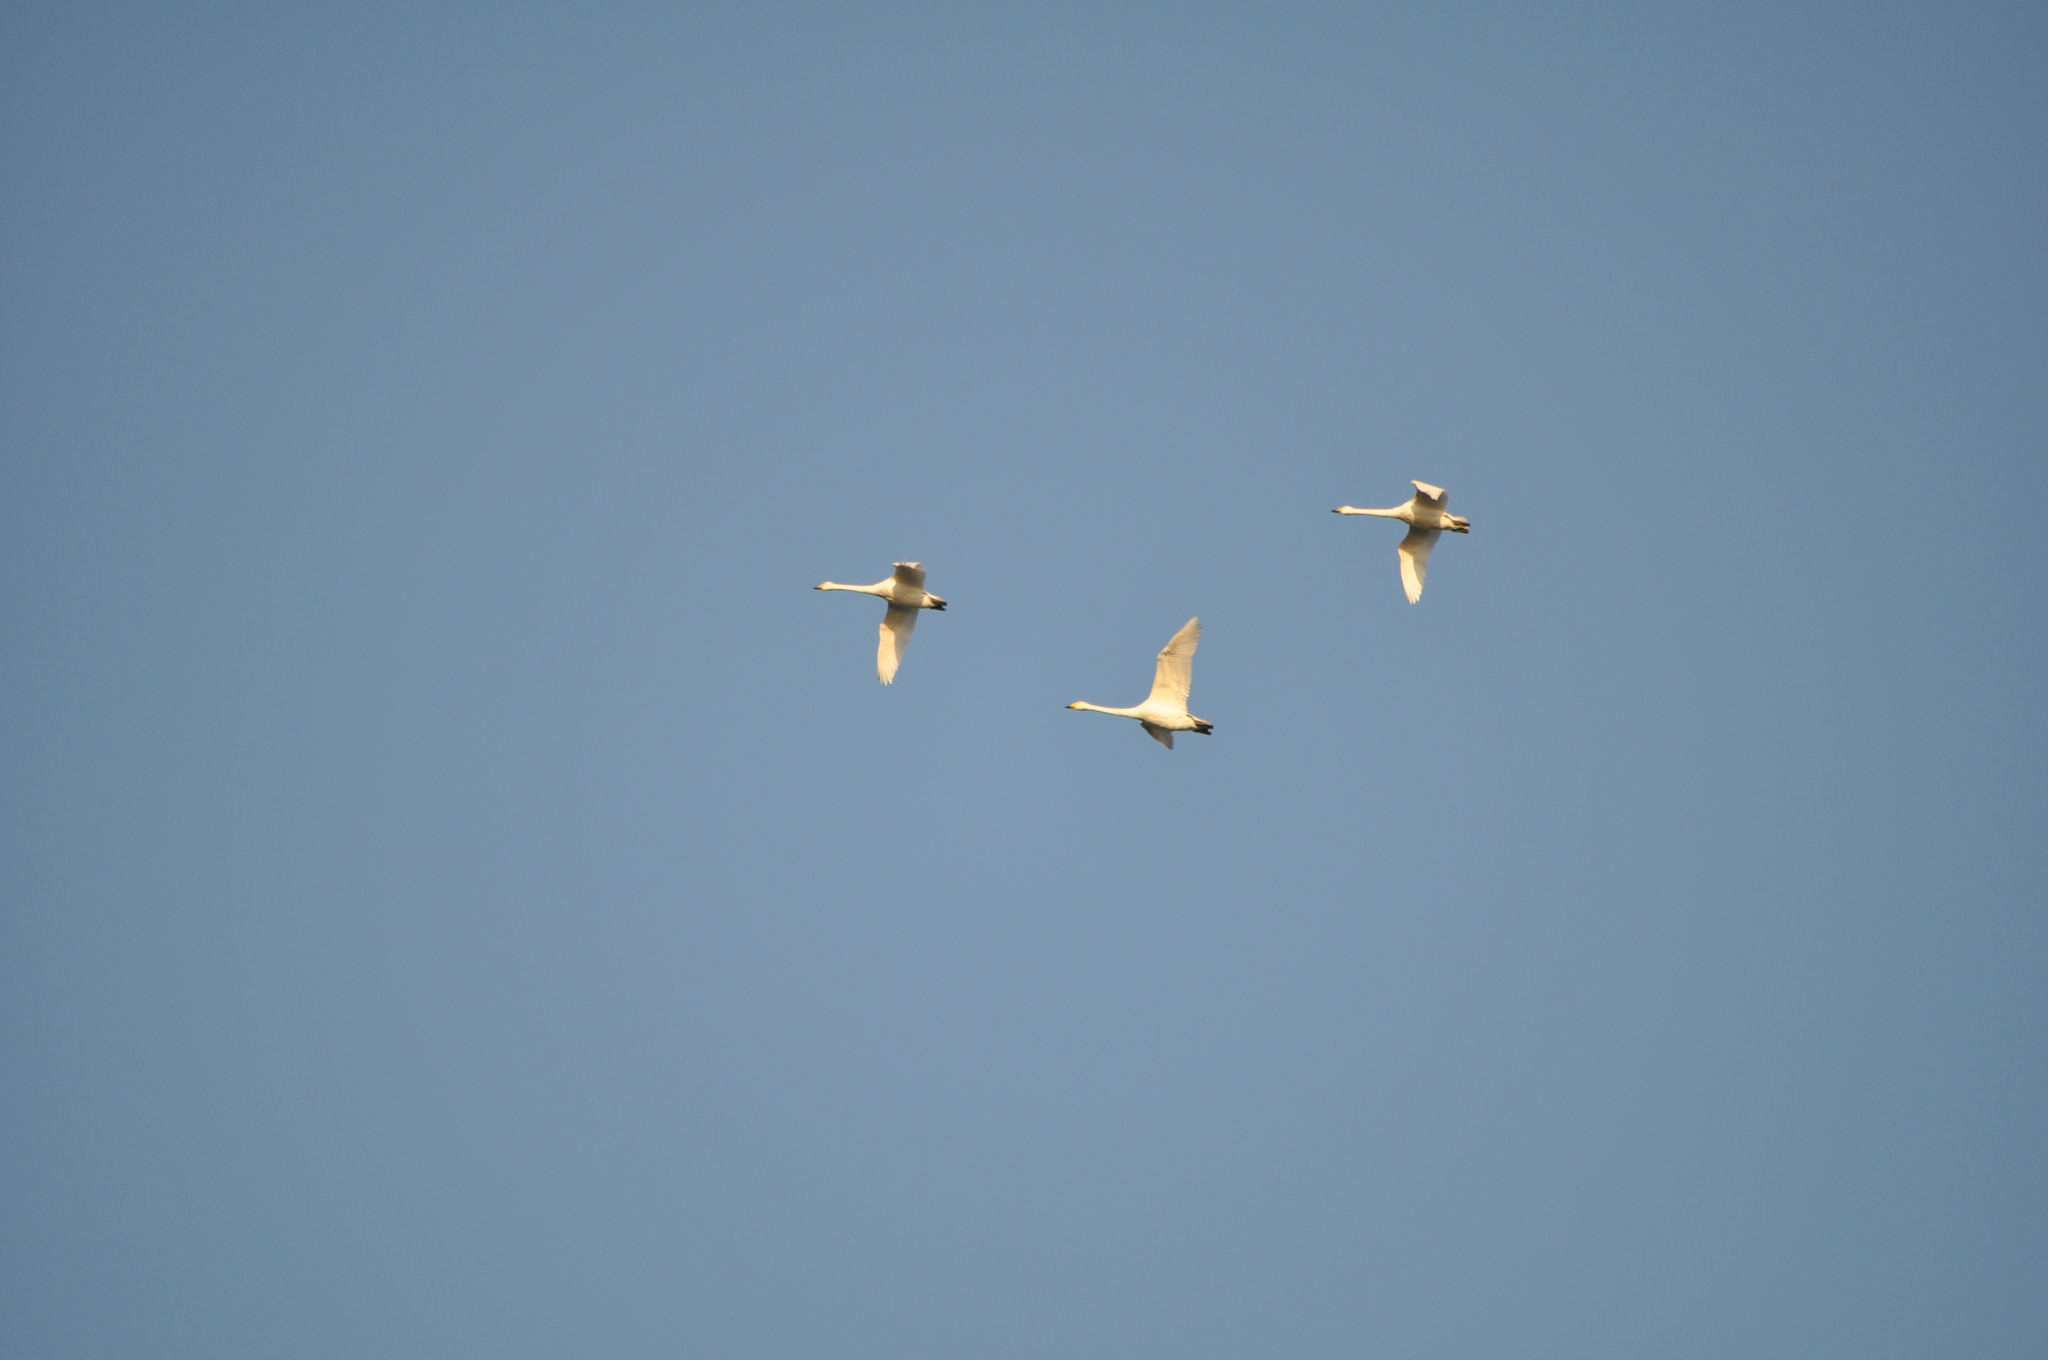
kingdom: Animalia
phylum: Chordata
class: Aves
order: Anseriformes
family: Anatidae
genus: Cygnus
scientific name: Cygnus cygnus
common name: Whooper swan
